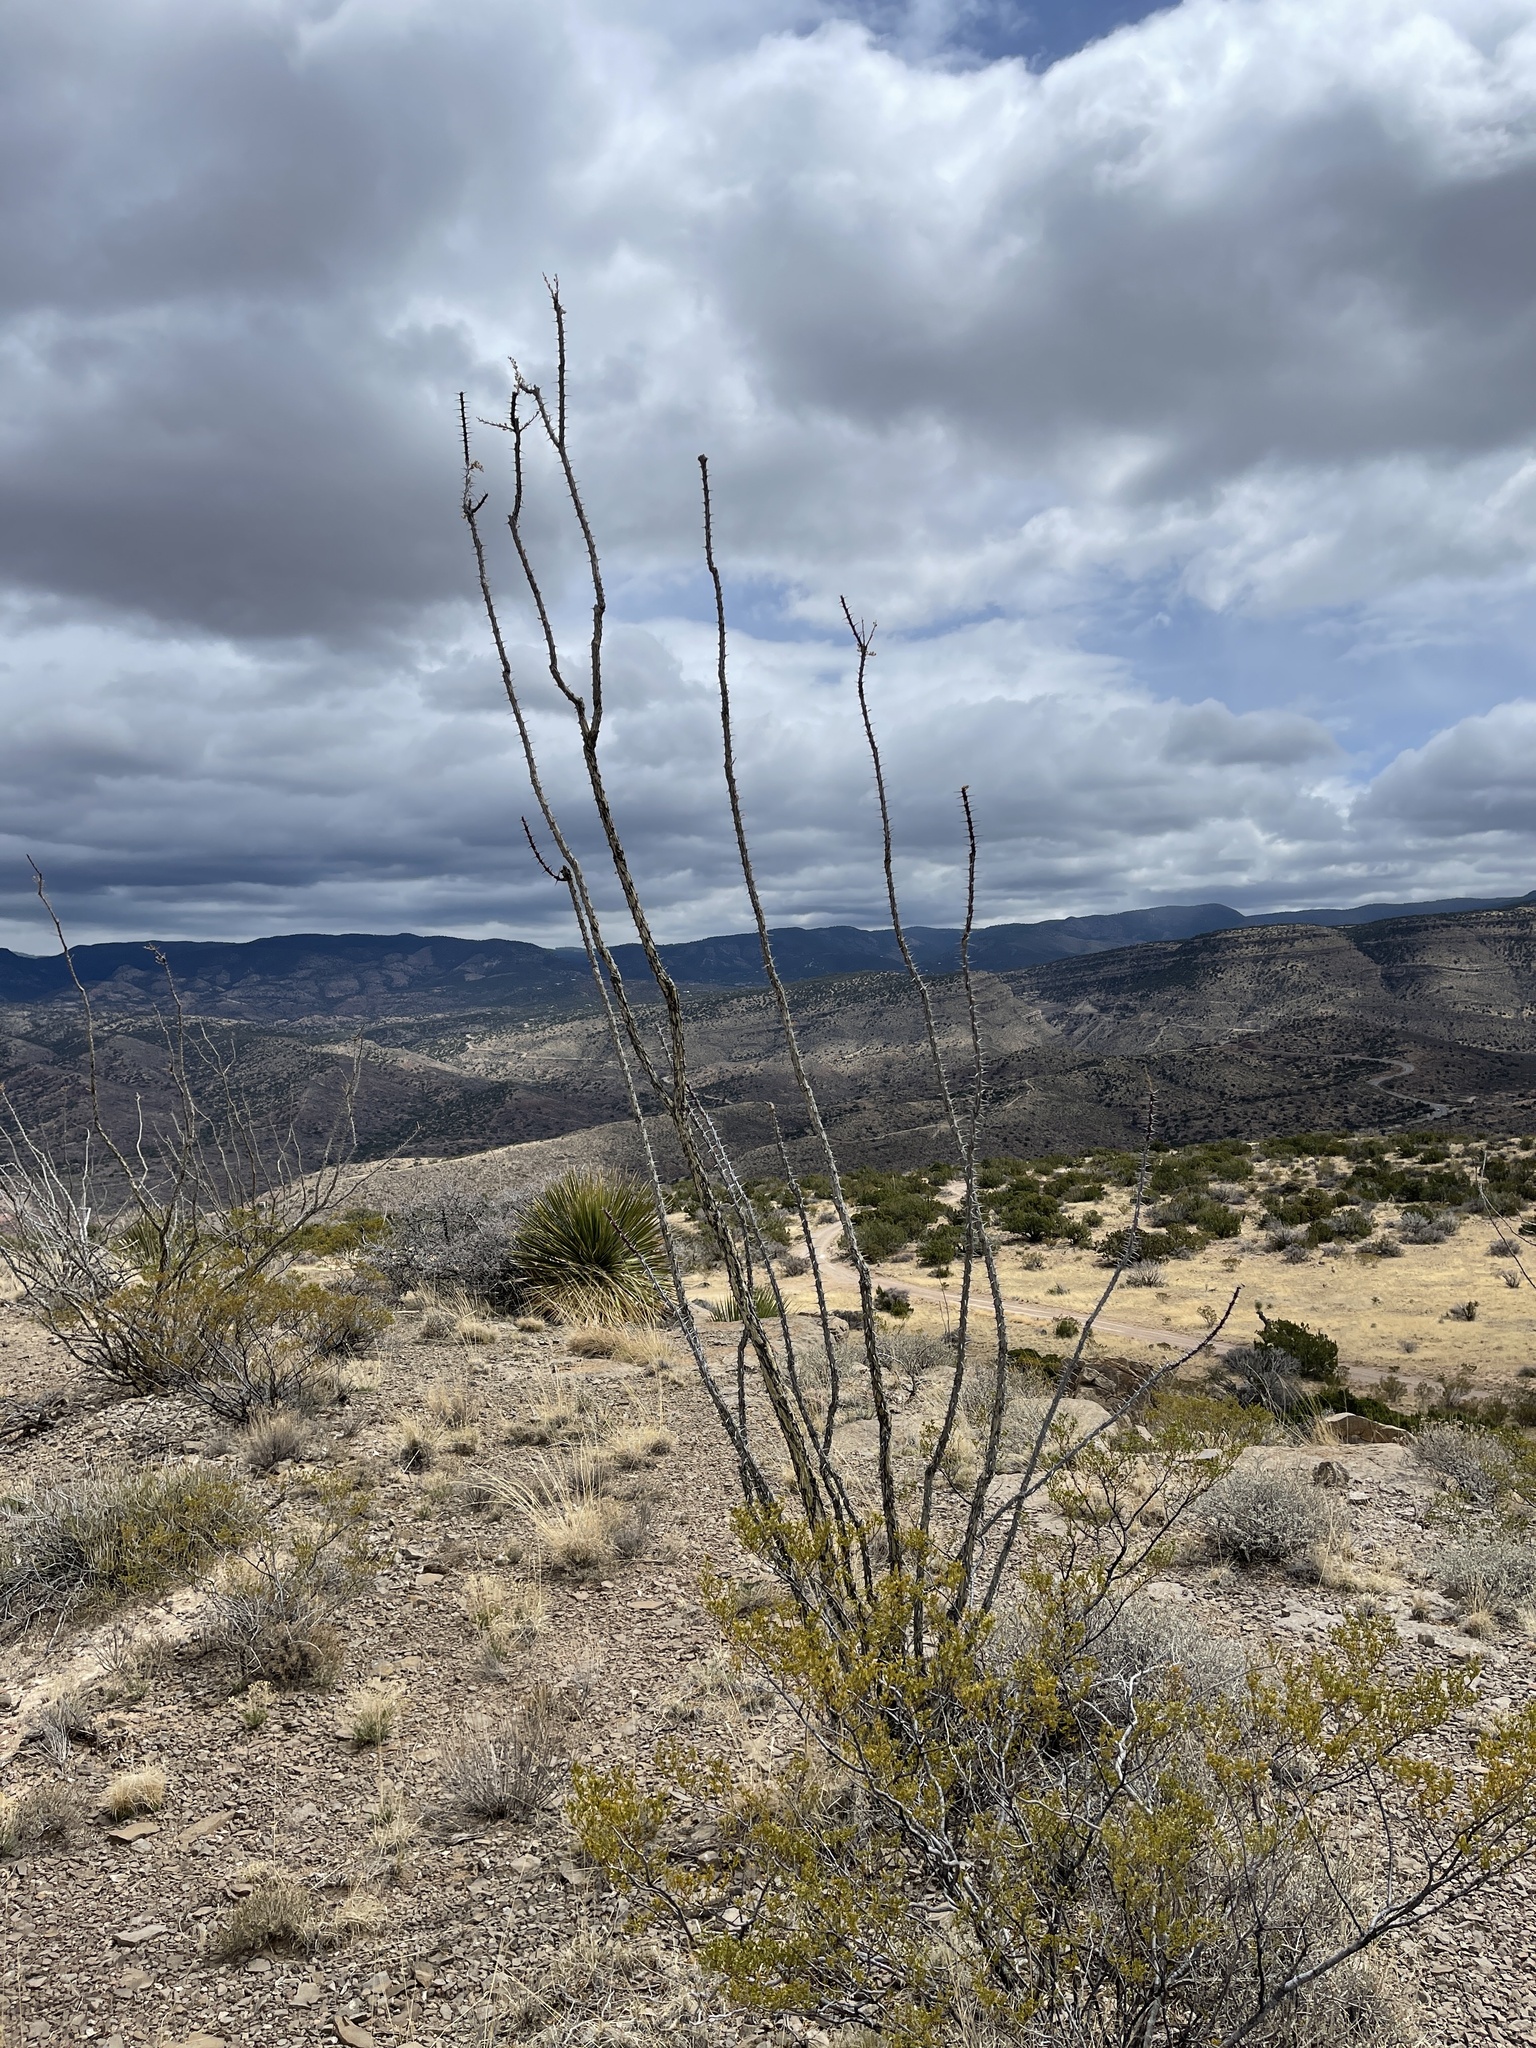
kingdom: Plantae
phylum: Tracheophyta
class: Magnoliopsida
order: Ericales
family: Fouquieriaceae
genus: Fouquieria
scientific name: Fouquieria splendens
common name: Vine-cactus
